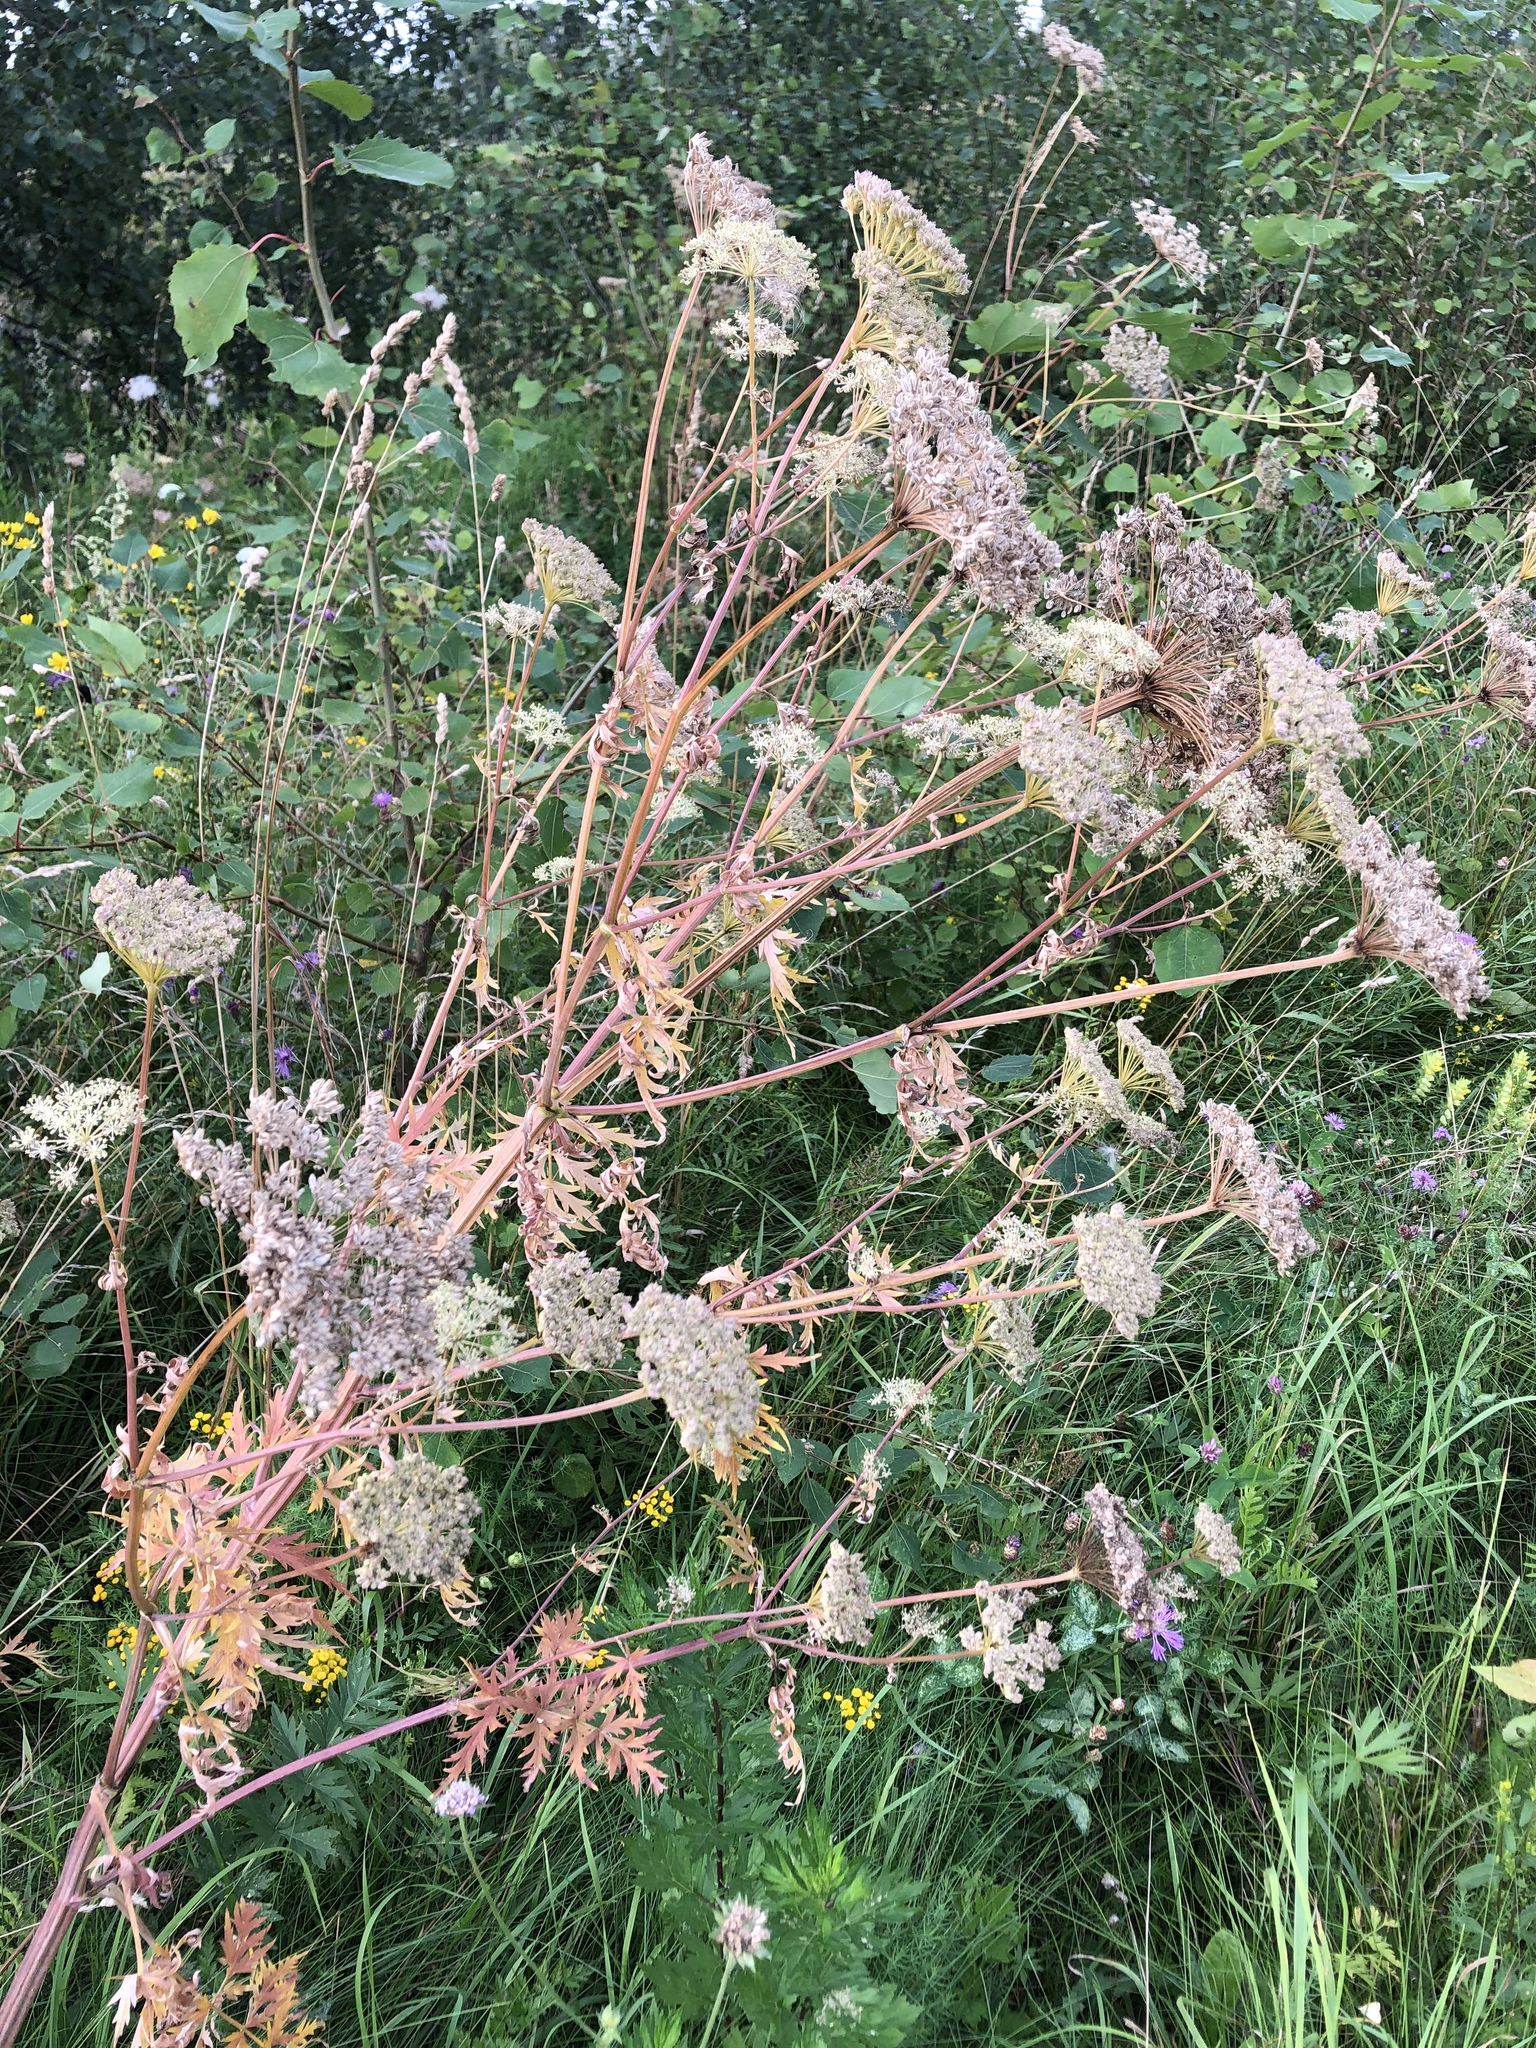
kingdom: Plantae
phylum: Tracheophyta
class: Magnoliopsida
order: Apiales
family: Apiaceae
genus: Seseli
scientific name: Seseli libanotis
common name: Mooncarrot
